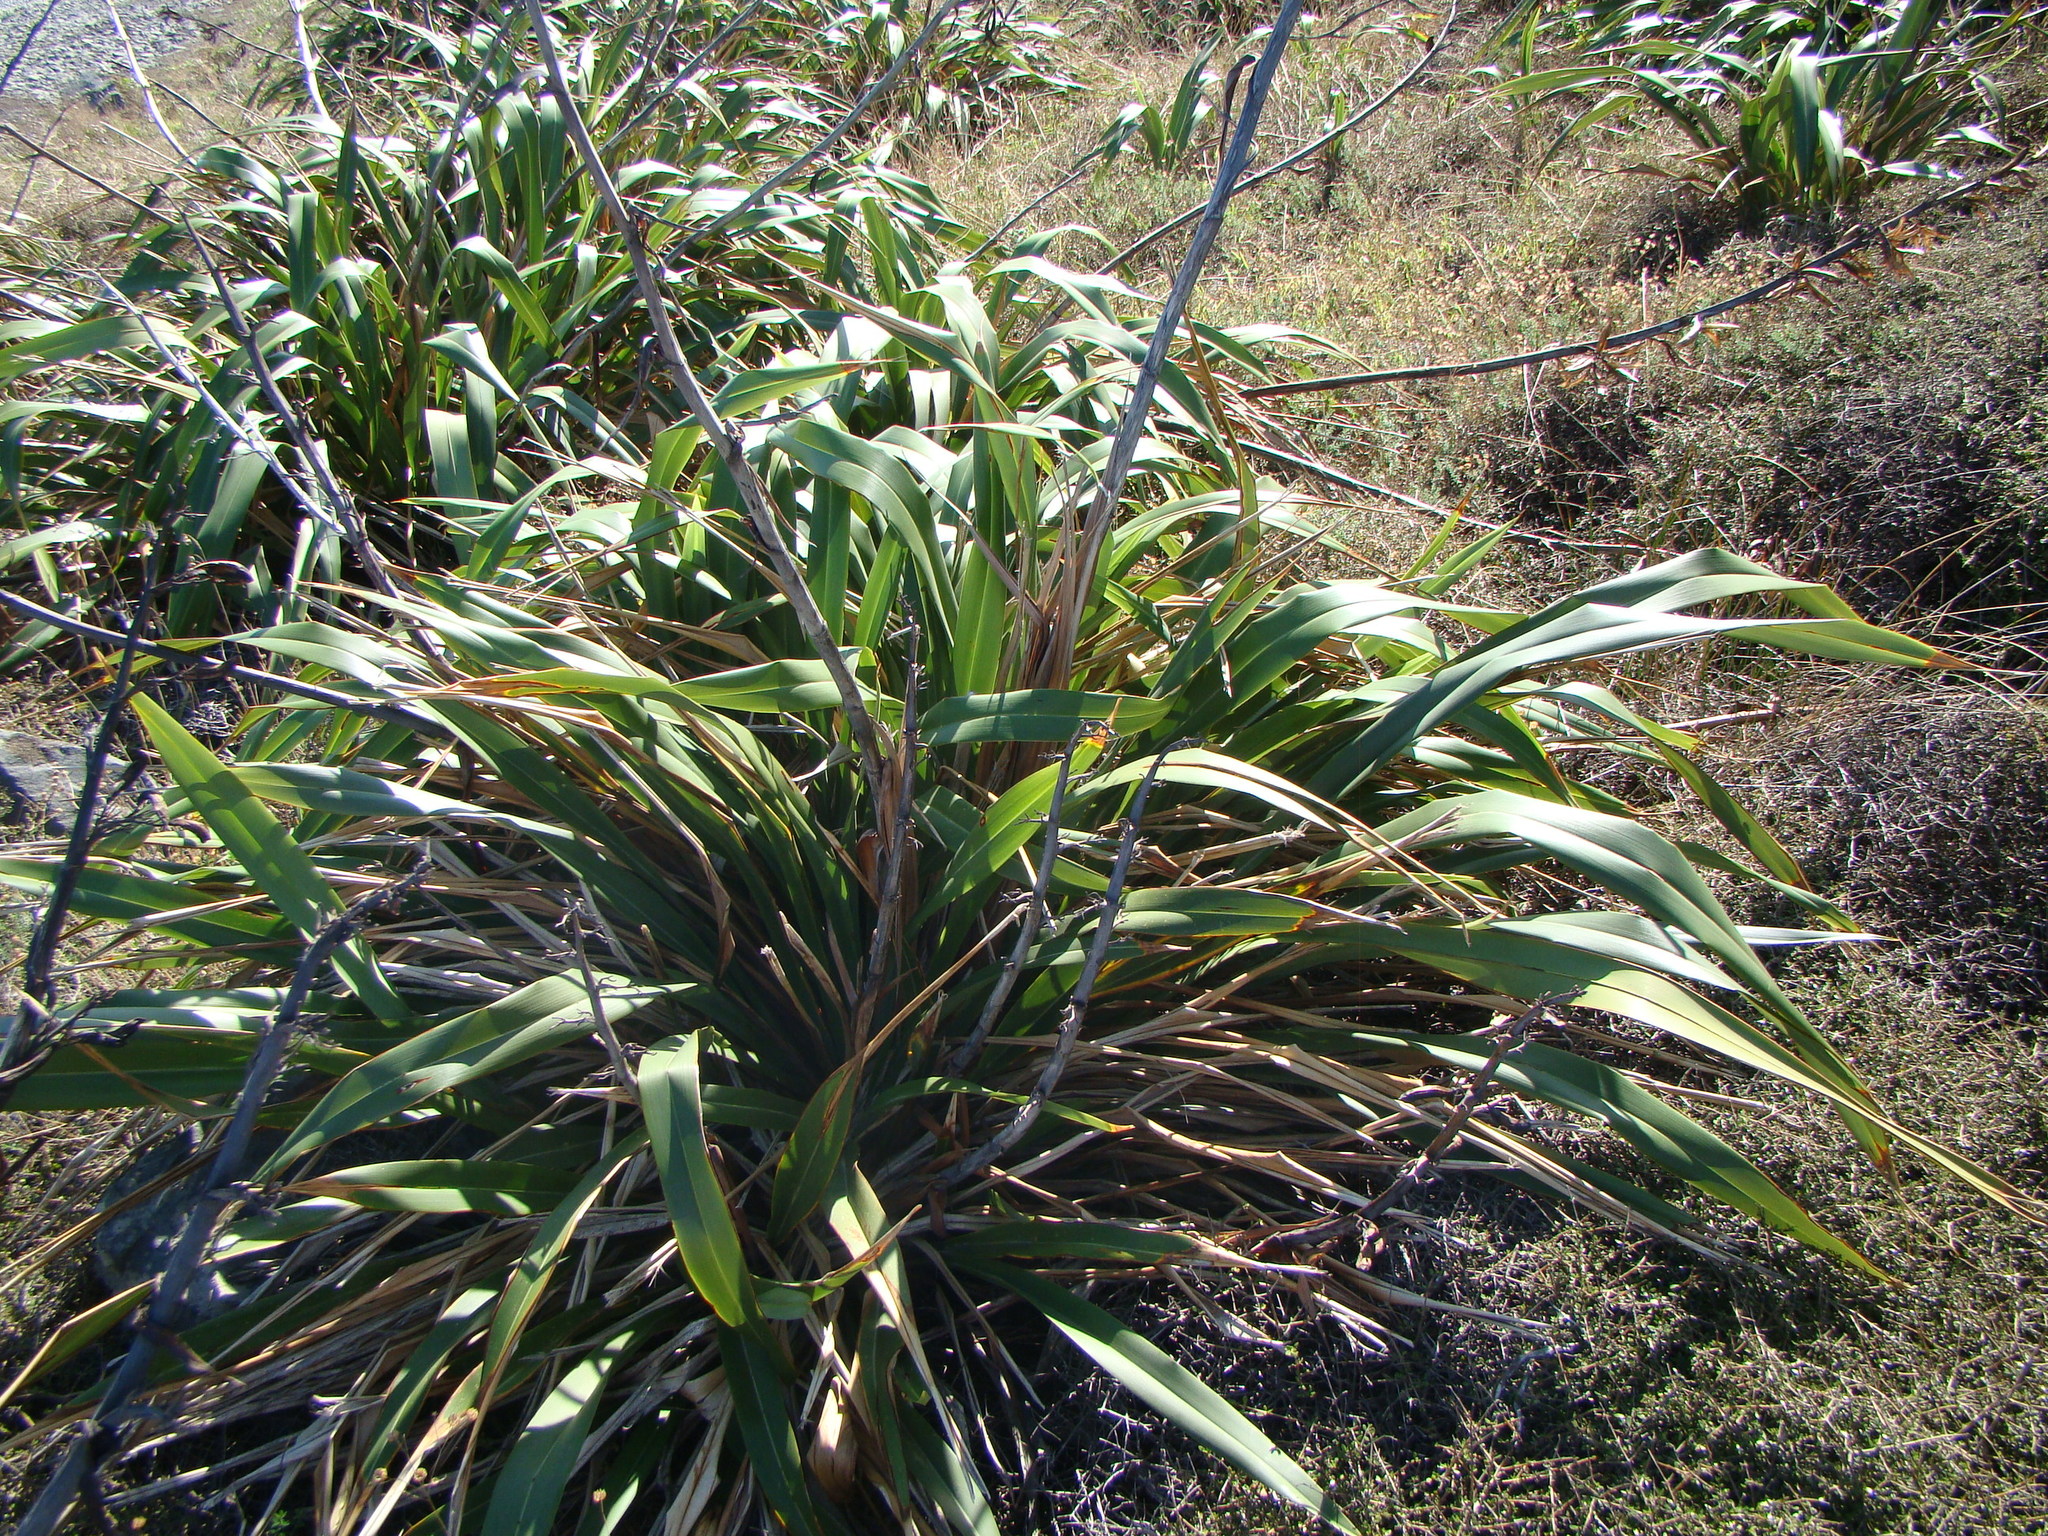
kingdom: Plantae
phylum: Tracheophyta
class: Liliopsida
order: Asparagales
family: Asphodelaceae
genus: Phormium
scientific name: Phormium colensoi
